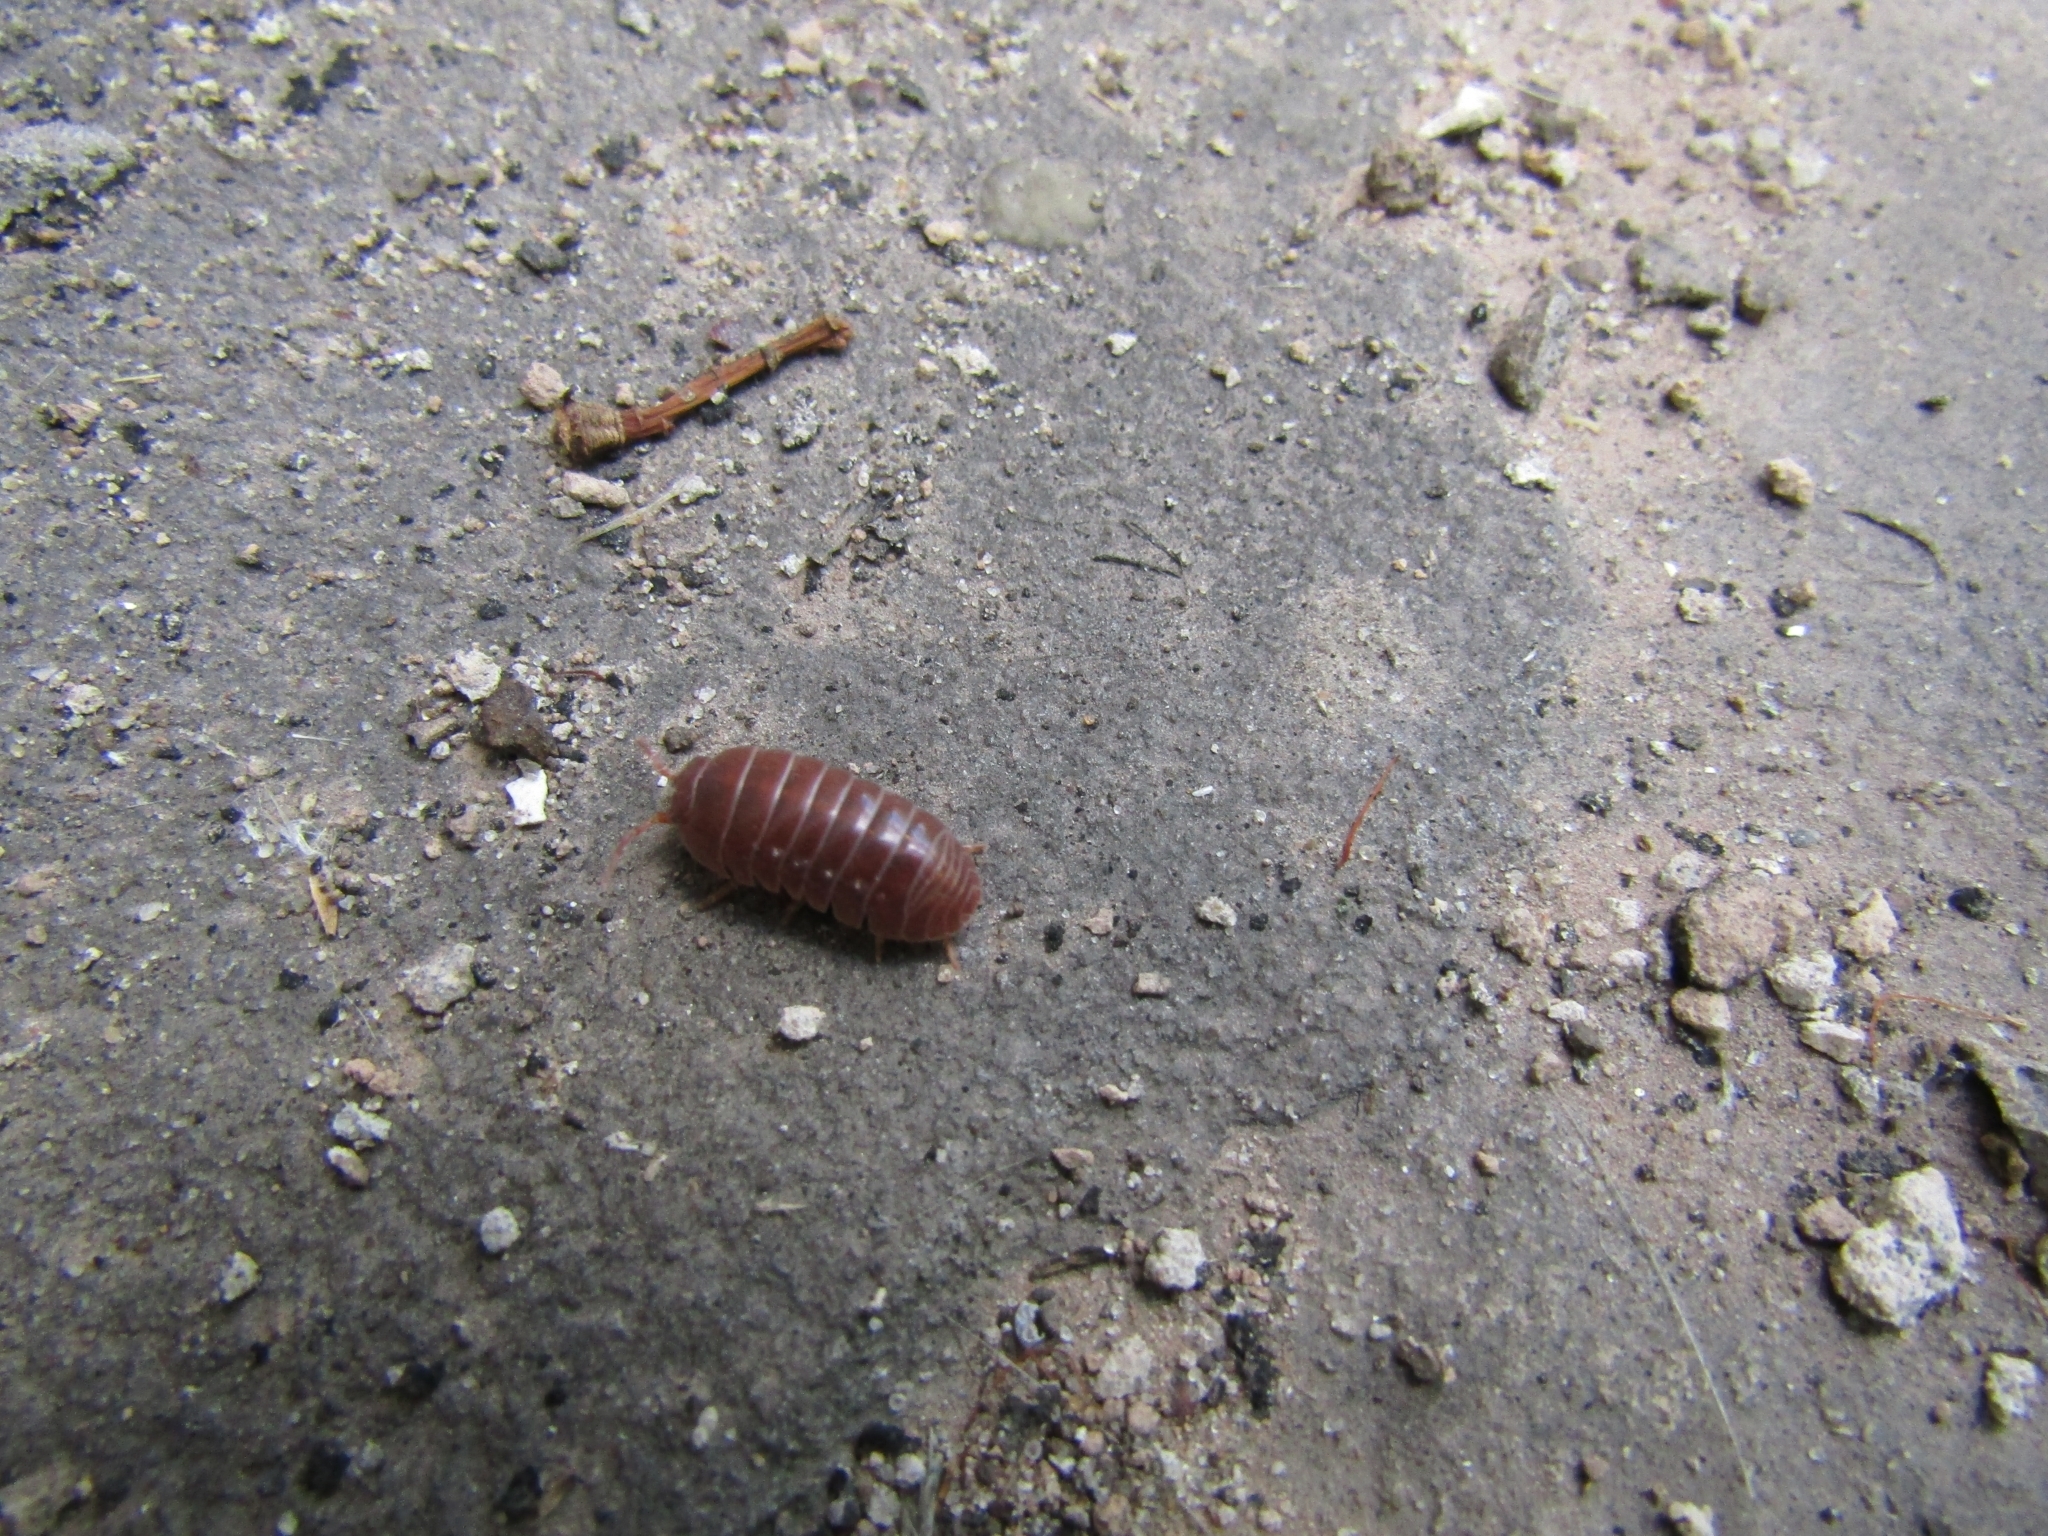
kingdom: Animalia
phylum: Arthropoda
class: Malacostraca
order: Isopoda
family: Armadillidiidae
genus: Armadillidium
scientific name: Armadillidium vulgare
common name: Common pill woodlouse
